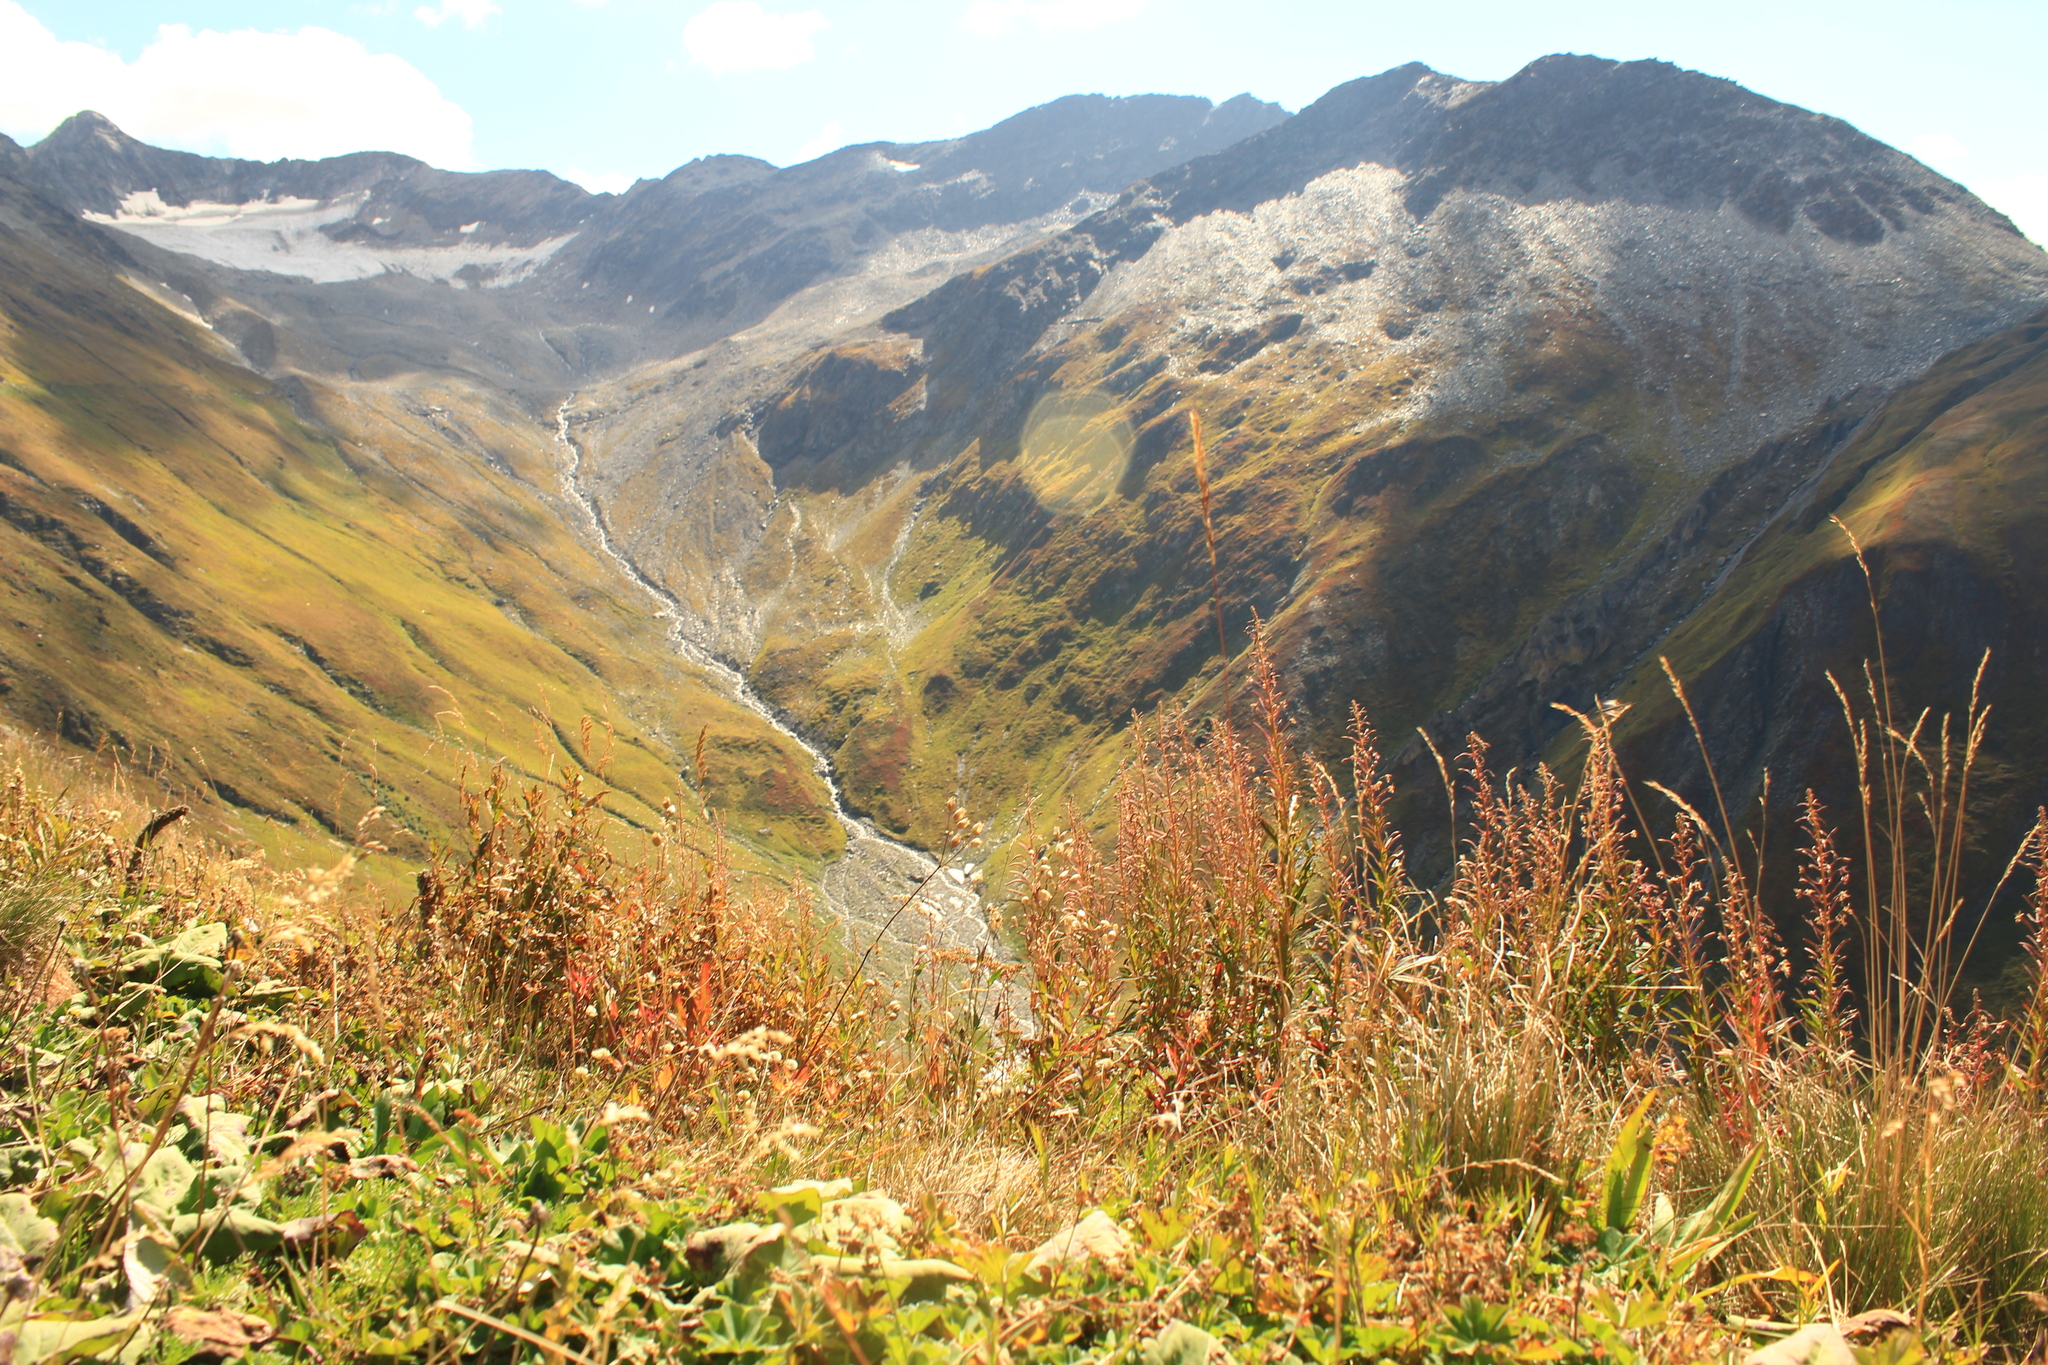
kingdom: Plantae
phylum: Tracheophyta
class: Magnoliopsida
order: Myrtales
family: Onagraceae
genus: Chamaenerion
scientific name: Chamaenerion angustifolium
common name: Fireweed
